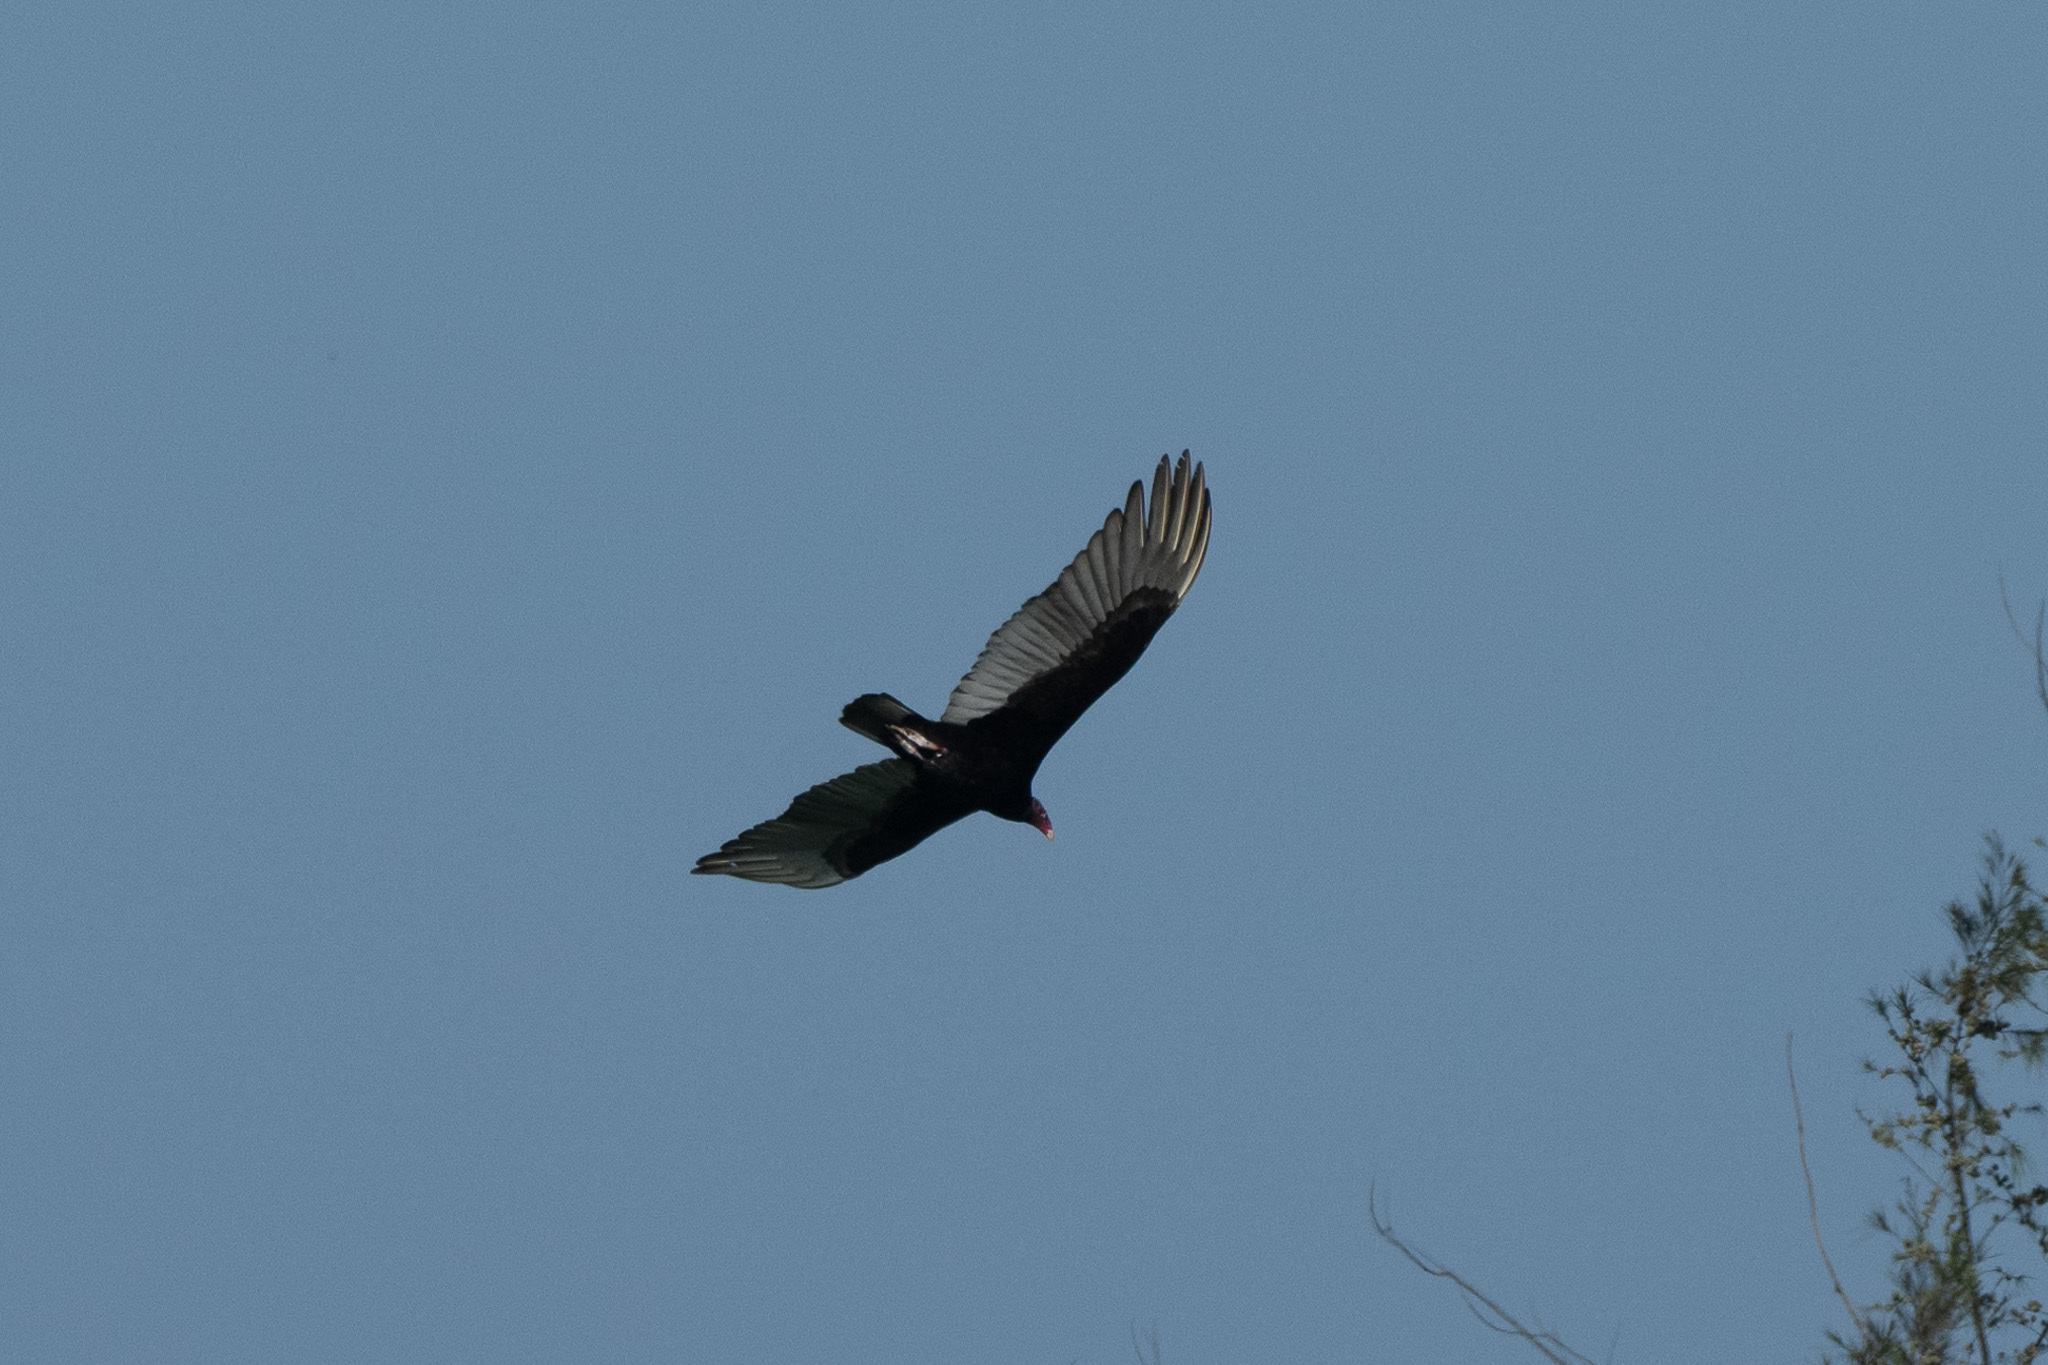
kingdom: Animalia
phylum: Chordata
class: Aves
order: Accipitriformes
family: Cathartidae
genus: Cathartes
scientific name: Cathartes aura
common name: Turkey vulture
